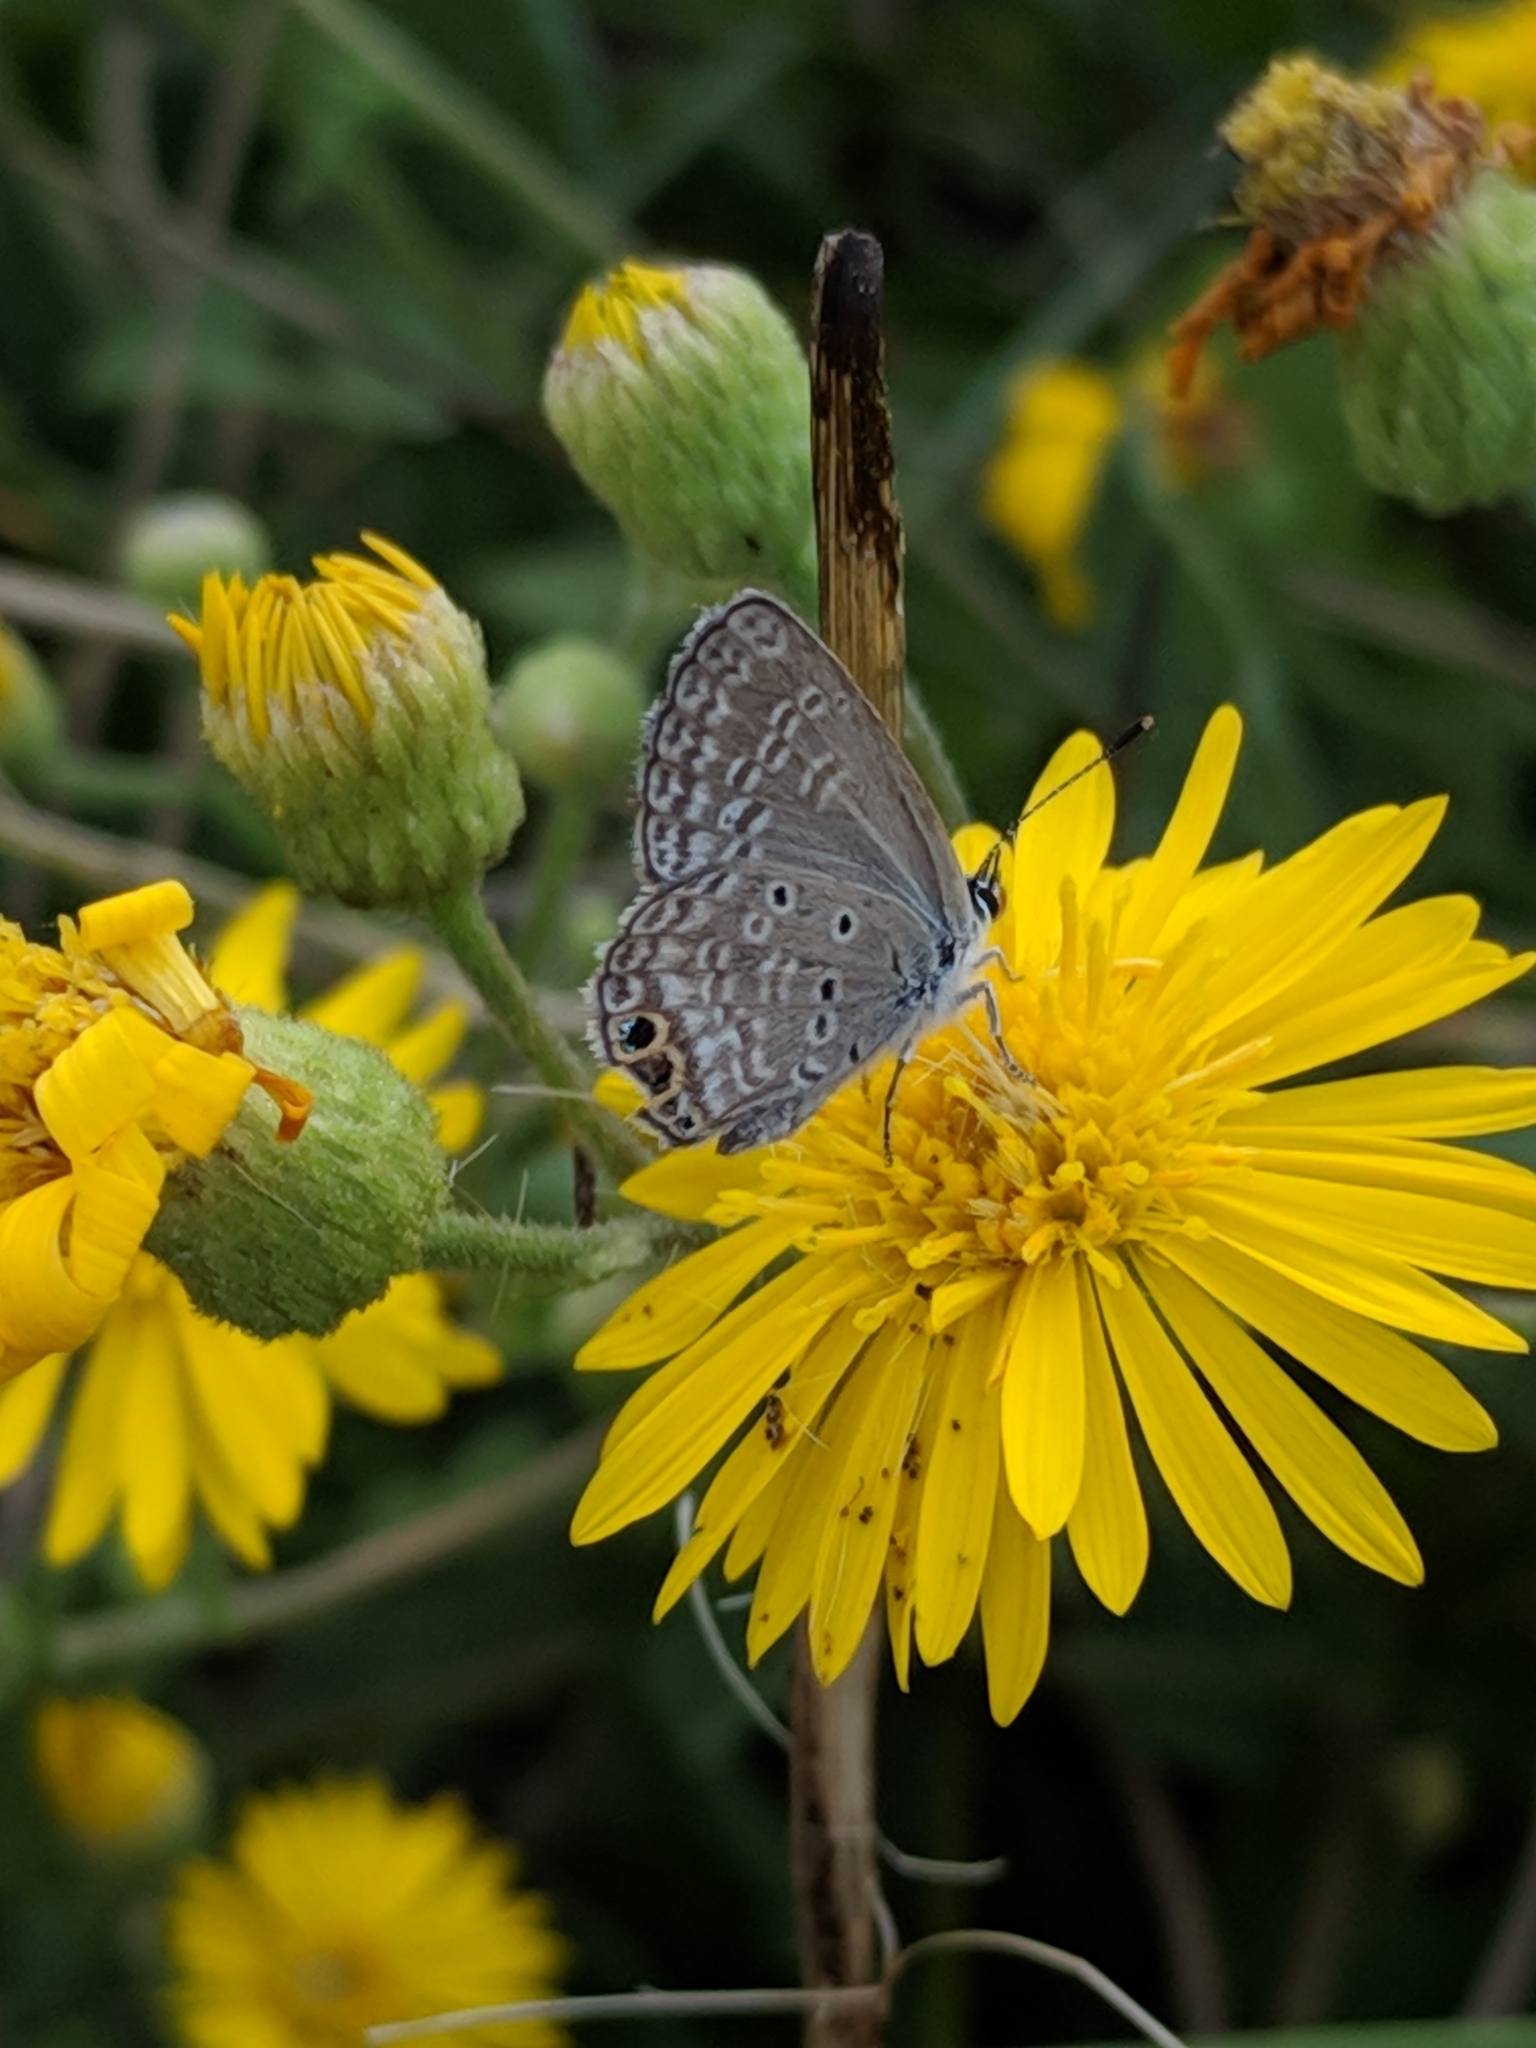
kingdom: Animalia
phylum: Arthropoda
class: Insecta
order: Lepidoptera
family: Lycaenidae
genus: Hemiargus
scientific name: Hemiargus ceraunus
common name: Ceraunus blue
